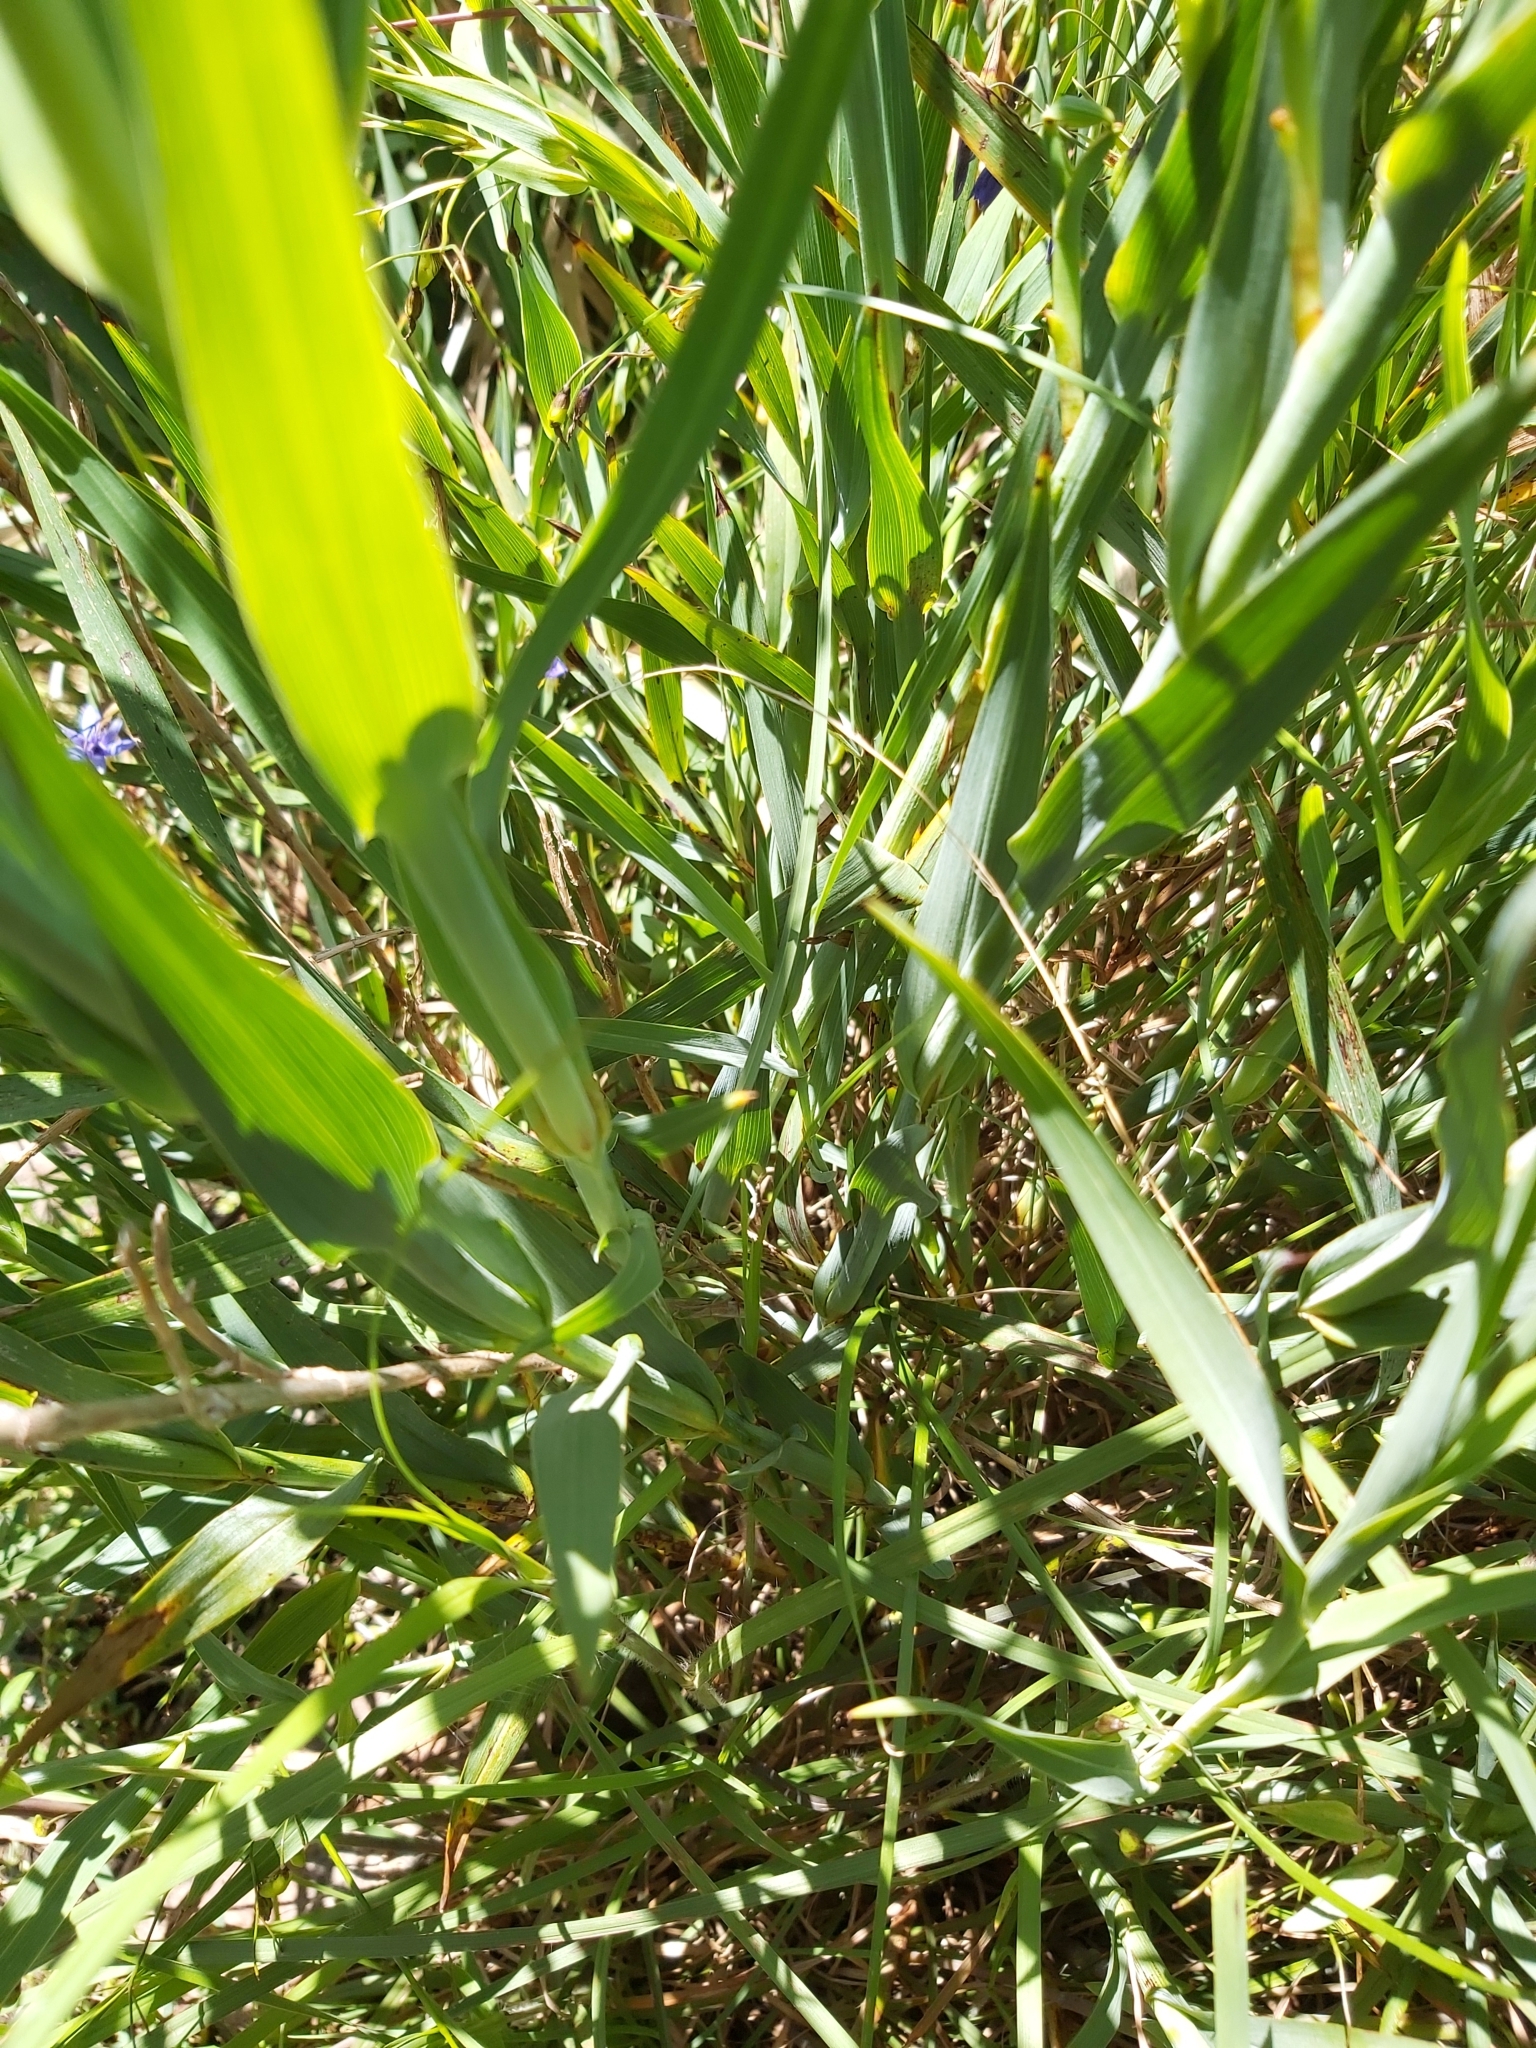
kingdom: Plantae
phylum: Tracheophyta
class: Liliopsida
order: Asparagales
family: Asphodelaceae
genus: Stypandra
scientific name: Stypandra glauca
